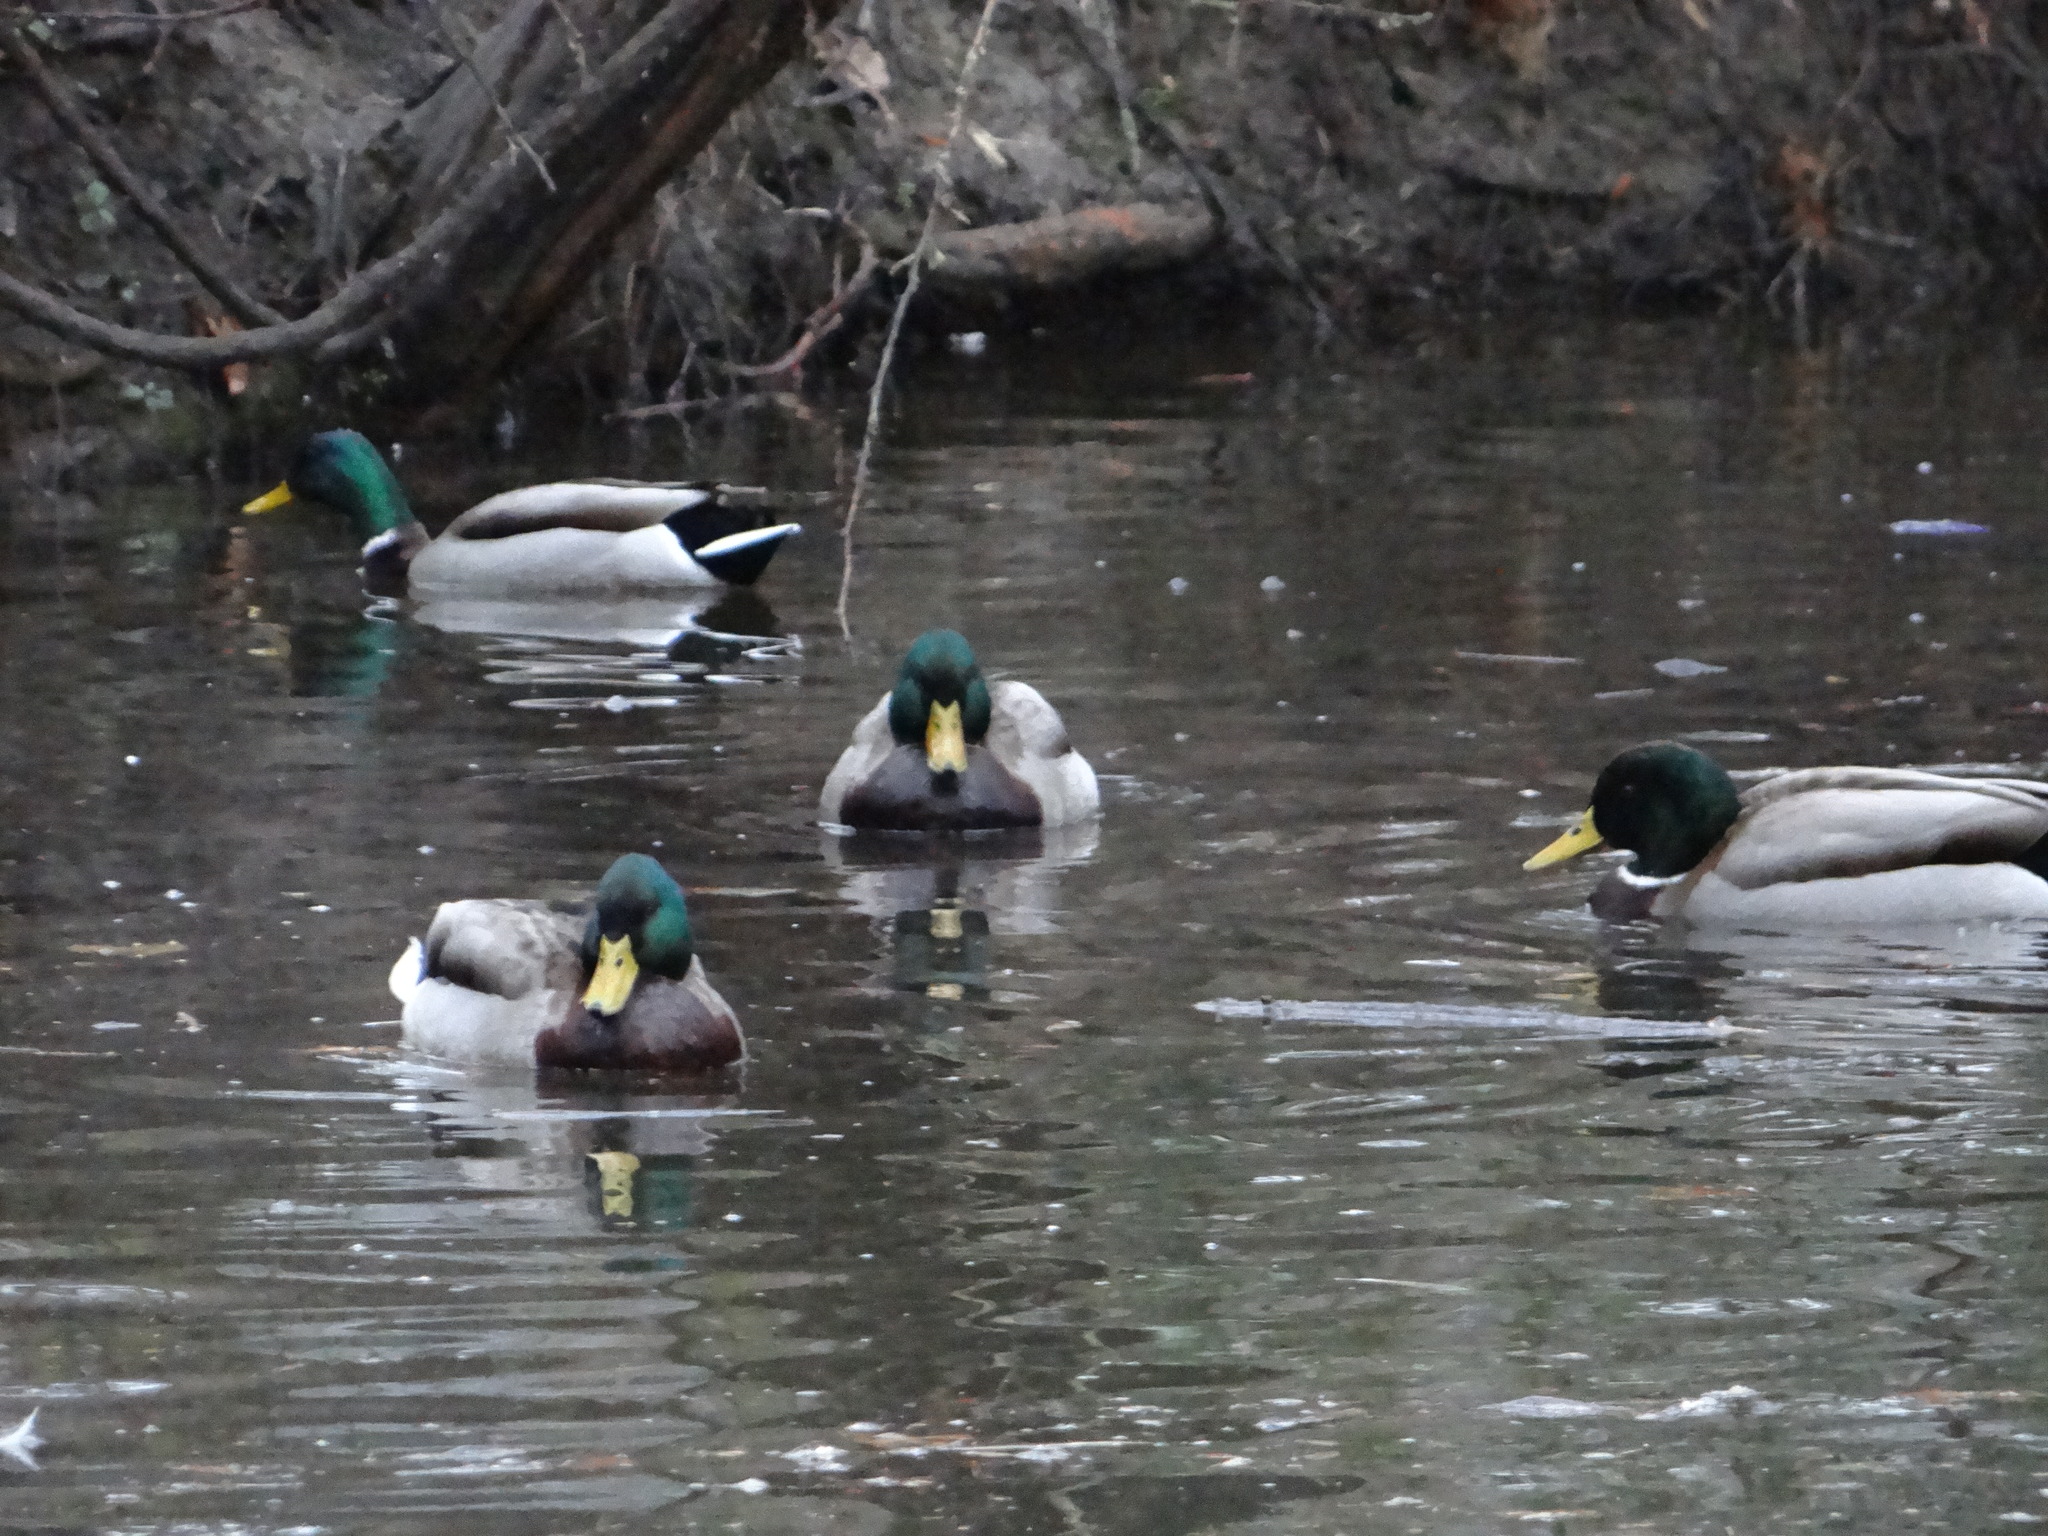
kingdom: Animalia
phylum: Chordata
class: Aves
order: Anseriformes
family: Anatidae
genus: Anas
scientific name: Anas platyrhynchos
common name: Mallard
